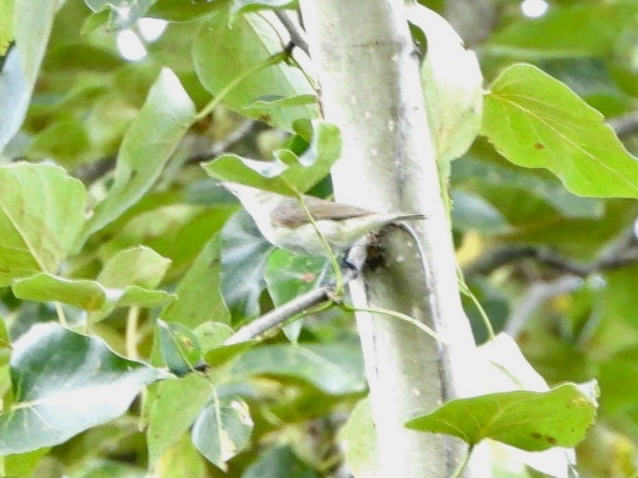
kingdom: Animalia
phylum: Chordata
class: Aves
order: Passeriformes
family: Vireonidae
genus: Vireo
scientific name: Vireo olivaceus
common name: Red-eyed vireo
